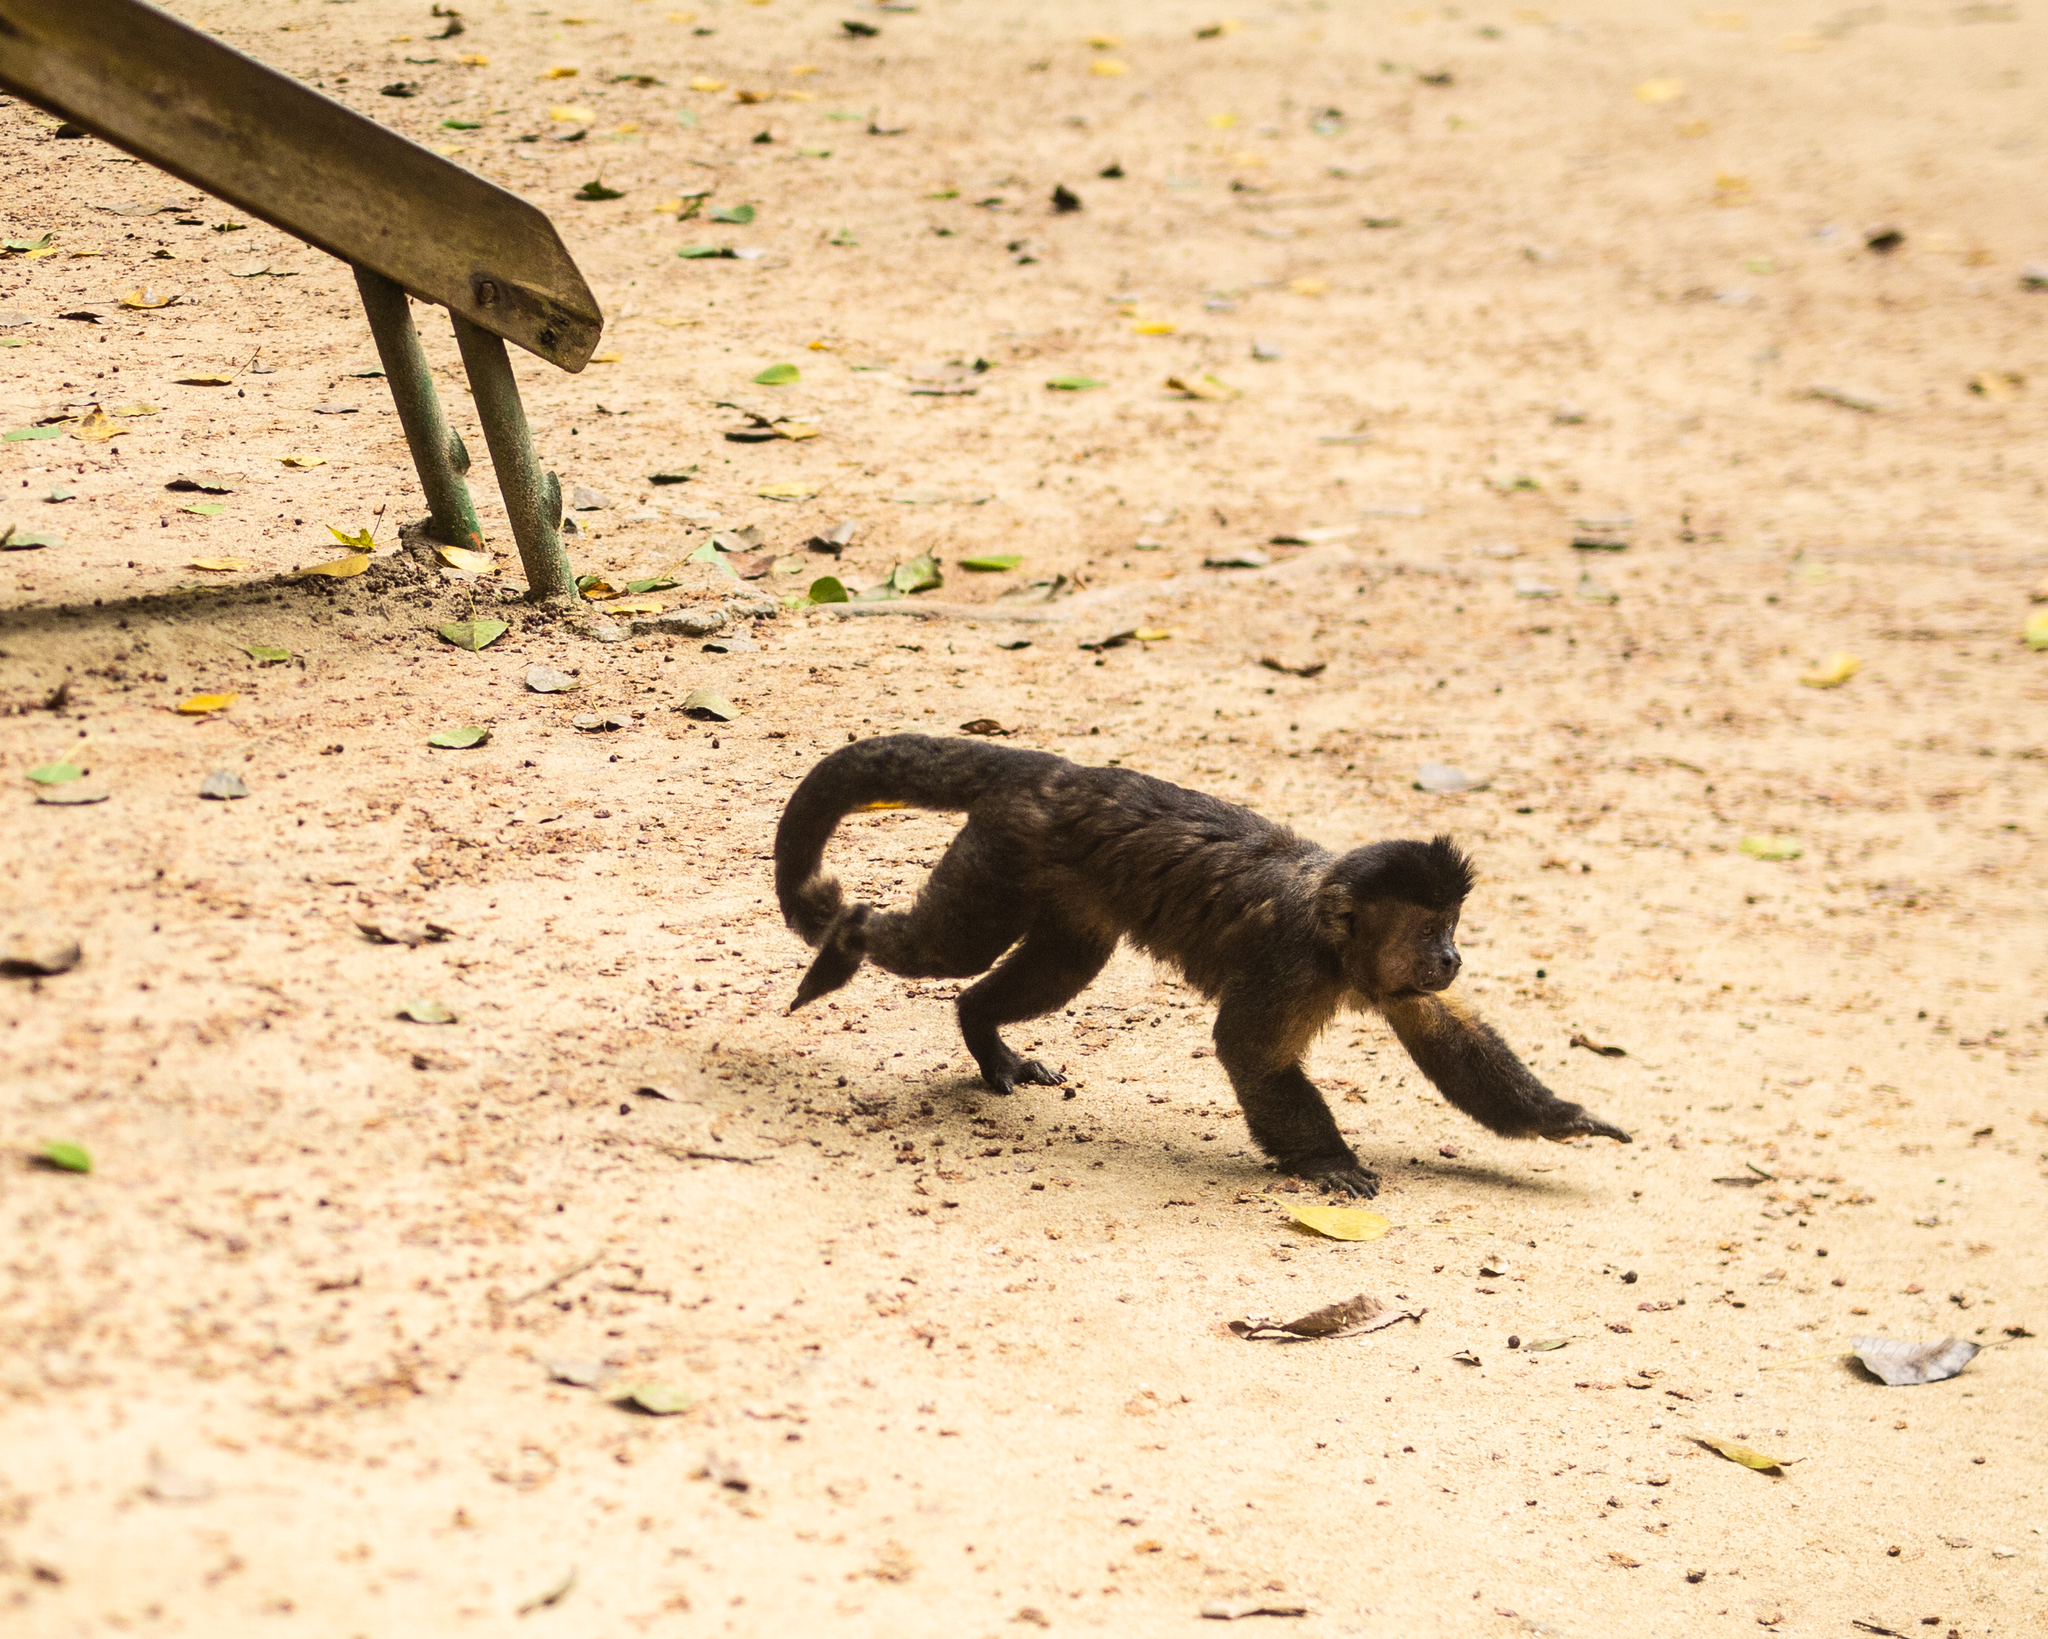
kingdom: Animalia
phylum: Chordata
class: Mammalia
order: Primates
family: Cebidae
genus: Sapajus
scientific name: Sapajus nigritus
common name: Black capuchin
